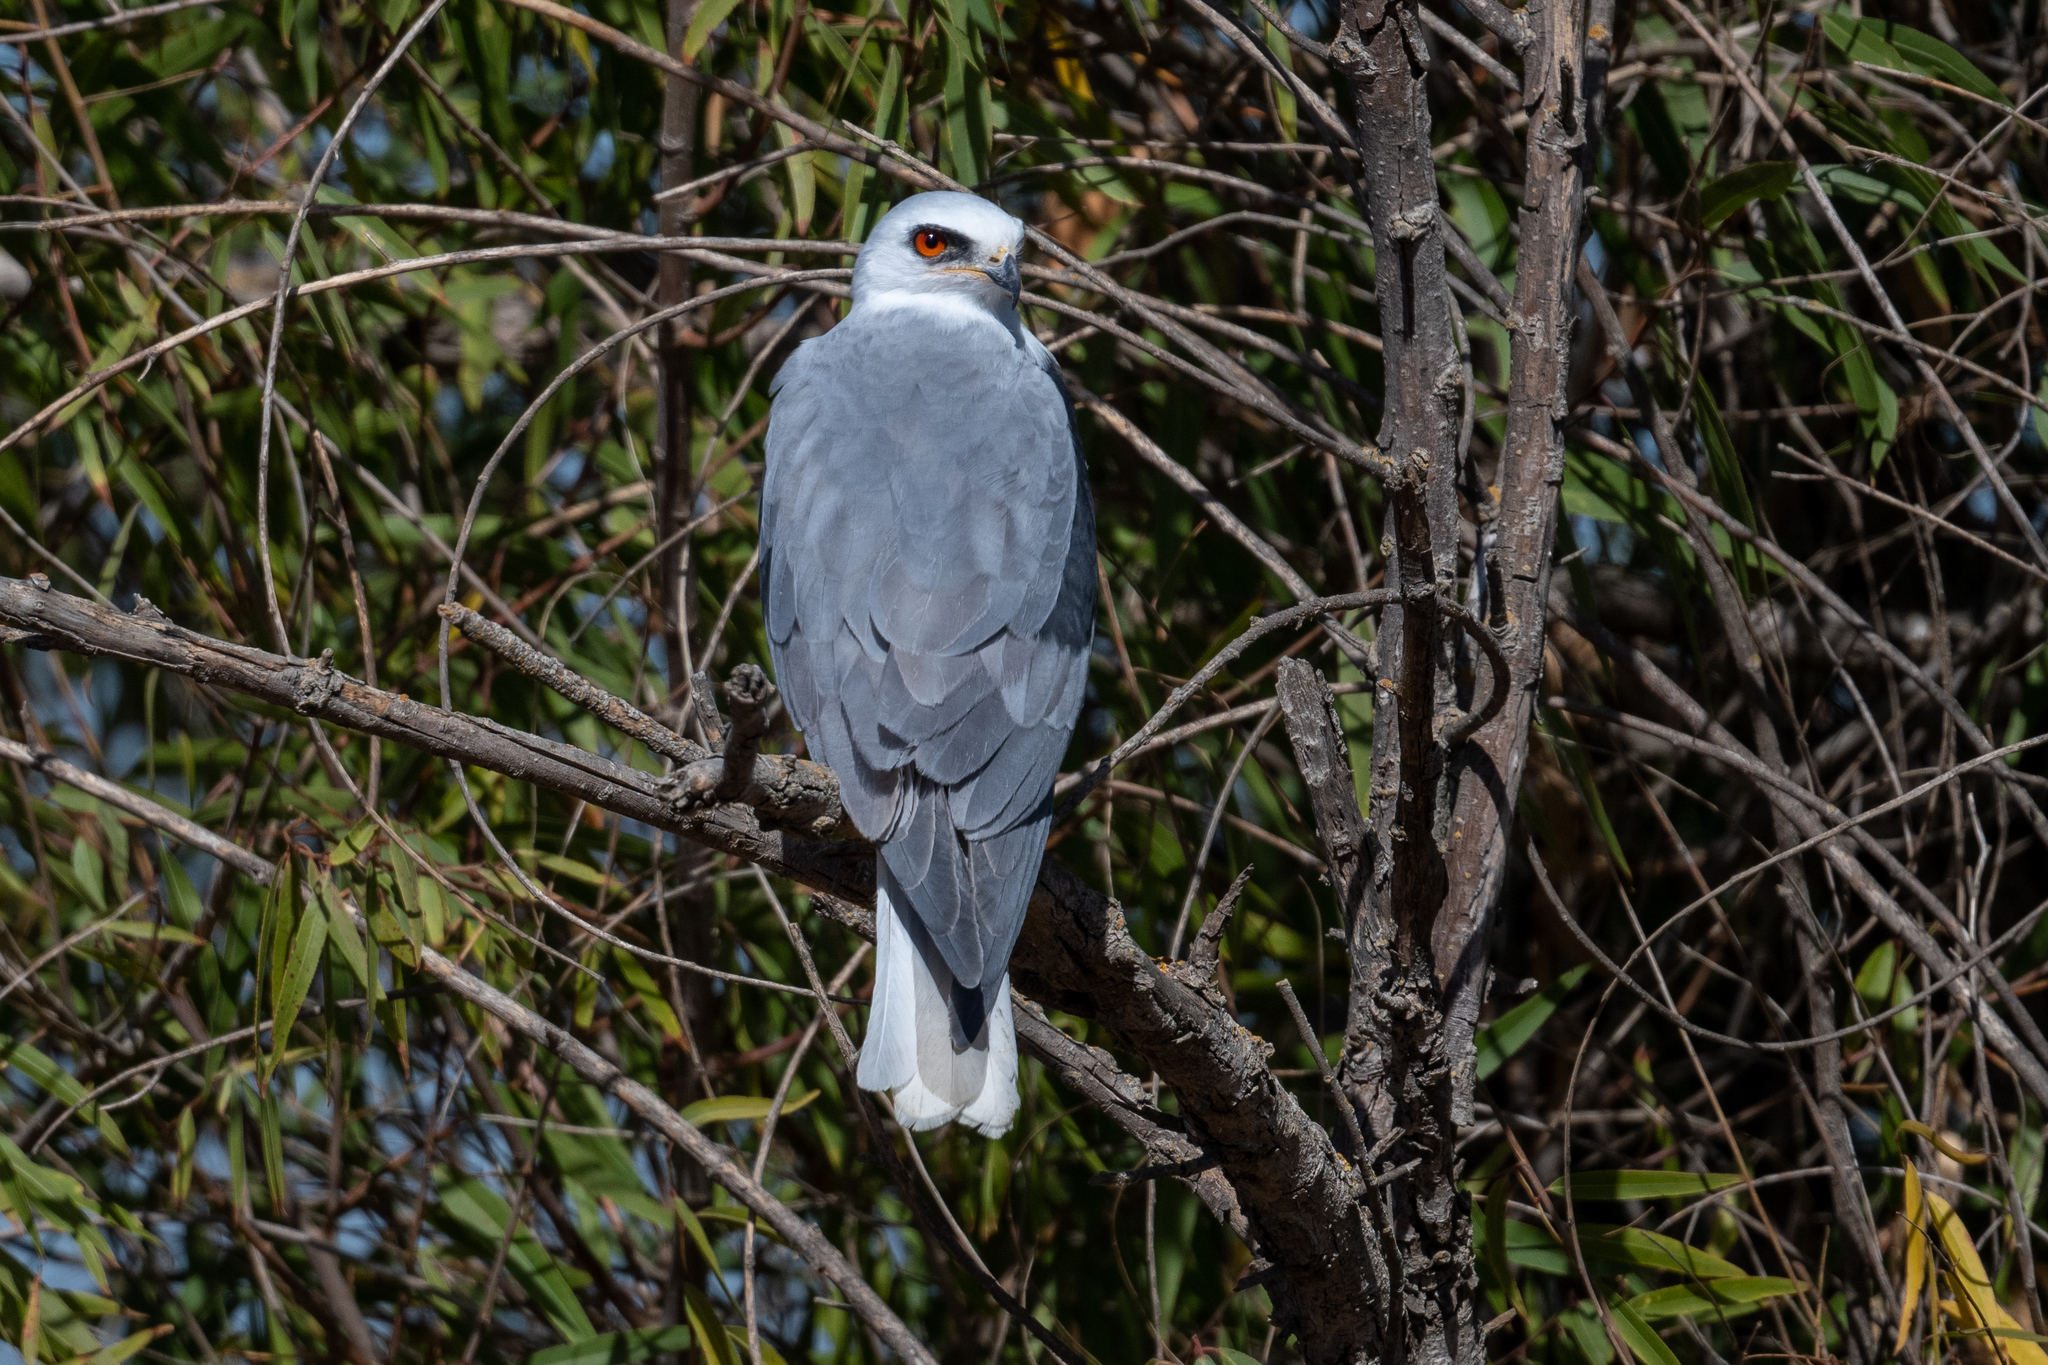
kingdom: Animalia
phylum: Chordata
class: Aves
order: Accipitriformes
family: Accipitridae
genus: Elanus
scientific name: Elanus leucurus
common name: White-tailed kite
